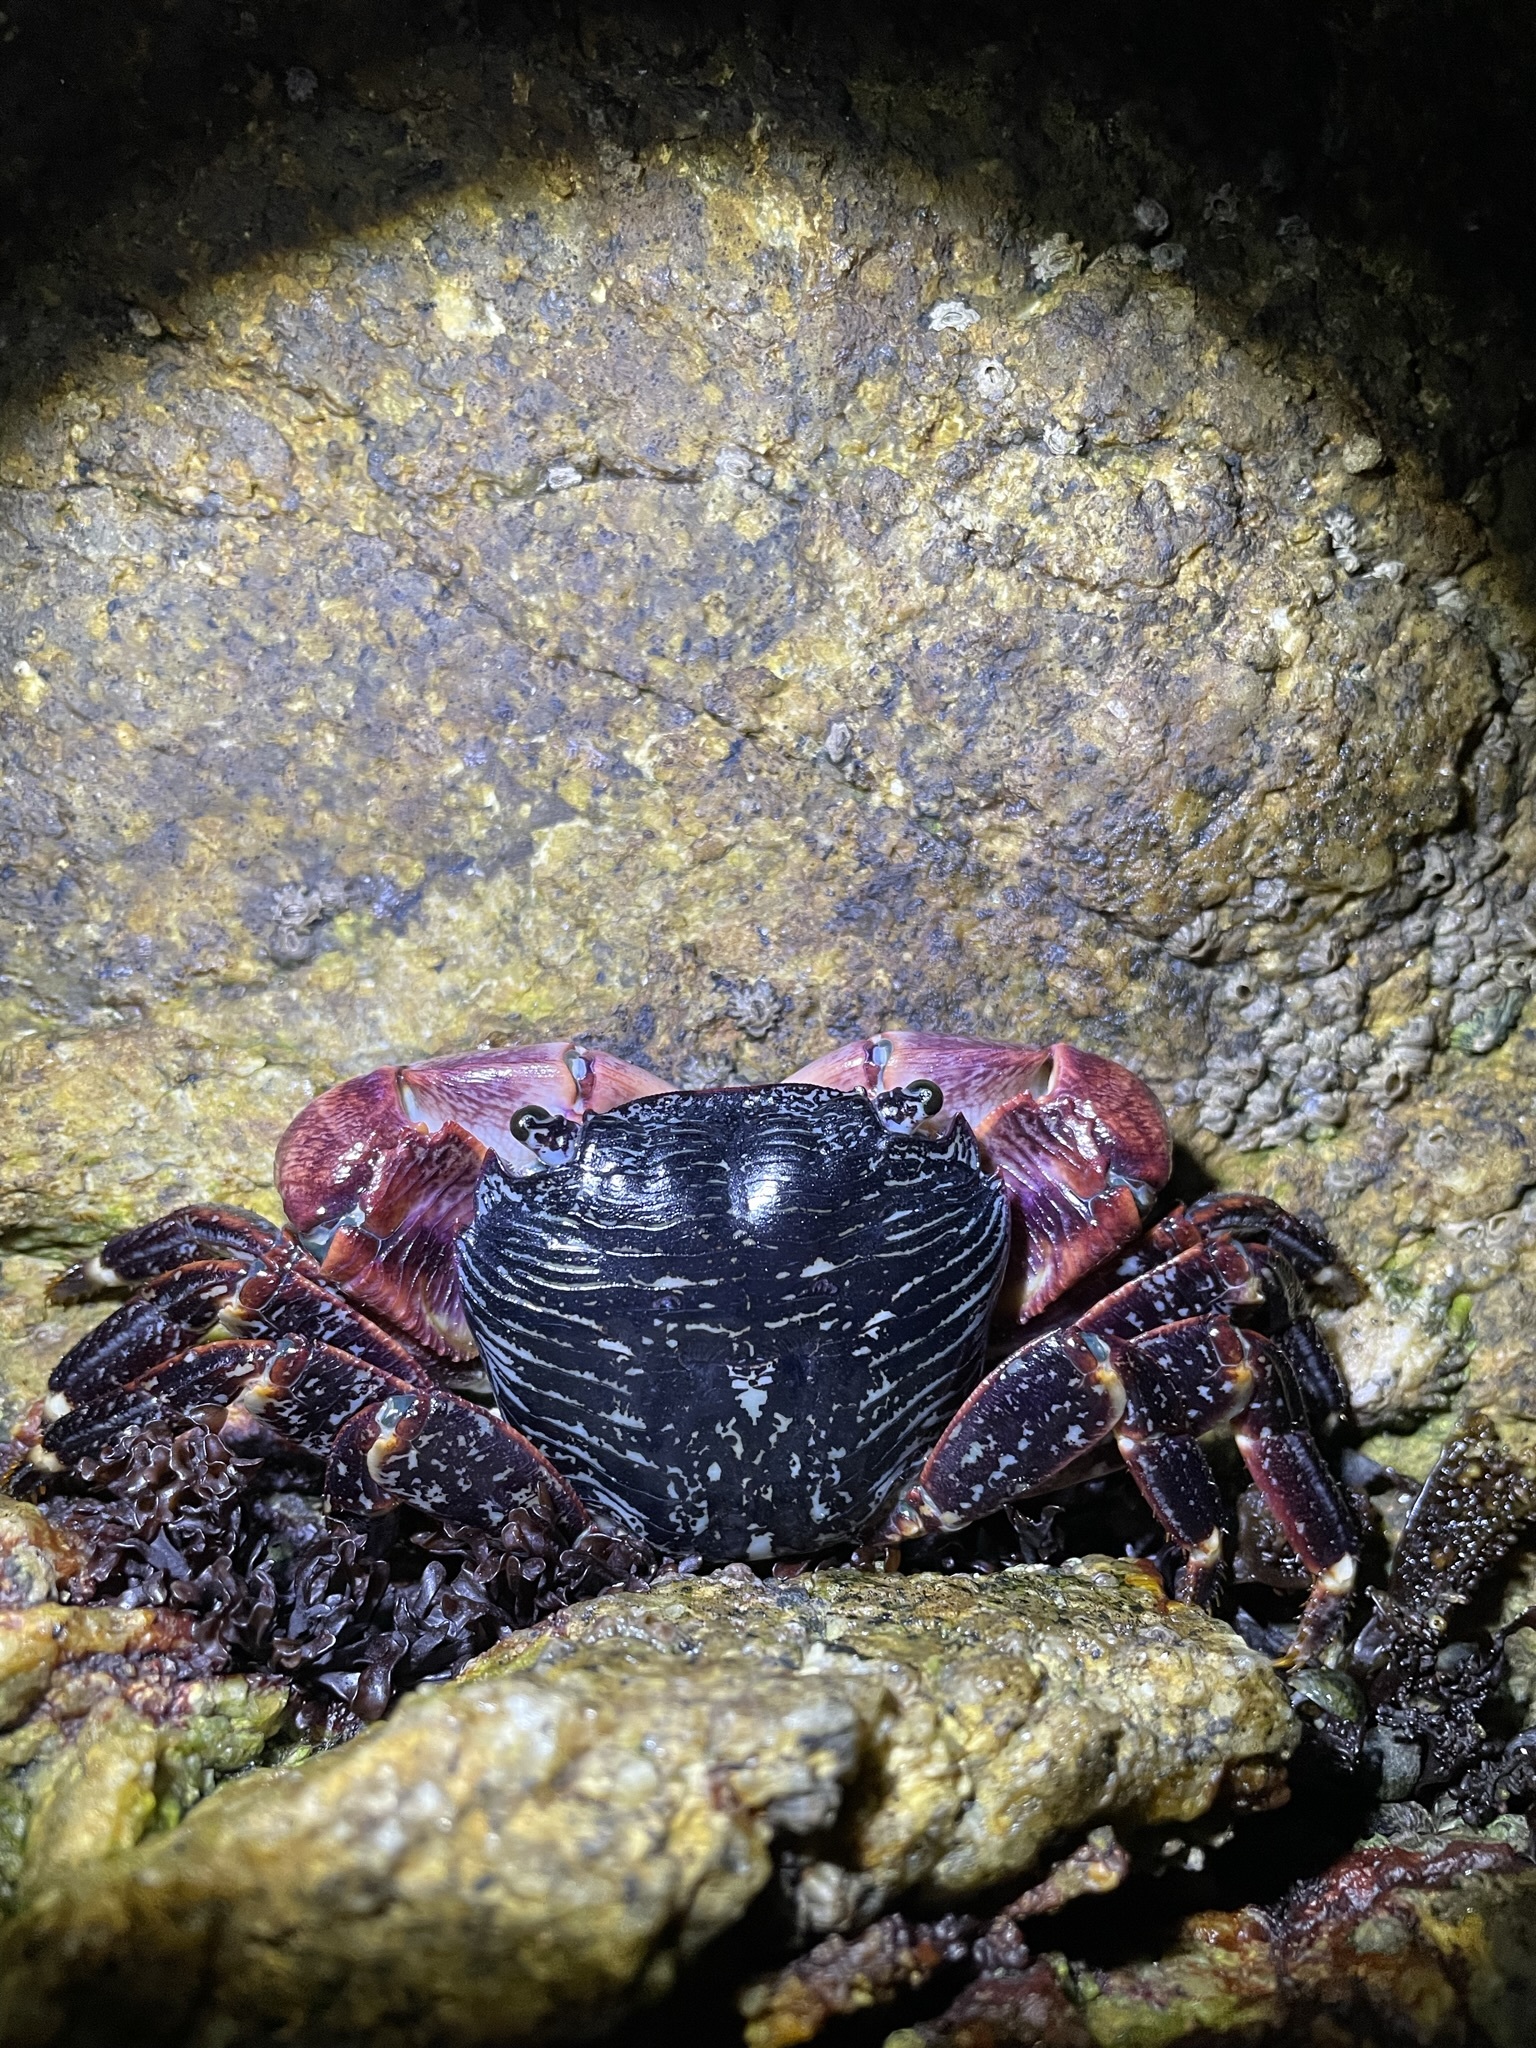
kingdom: Animalia
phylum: Arthropoda
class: Malacostraca
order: Decapoda
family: Grapsidae
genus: Pachygrapsus
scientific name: Pachygrapsus crassipes
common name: Striped shore crab
